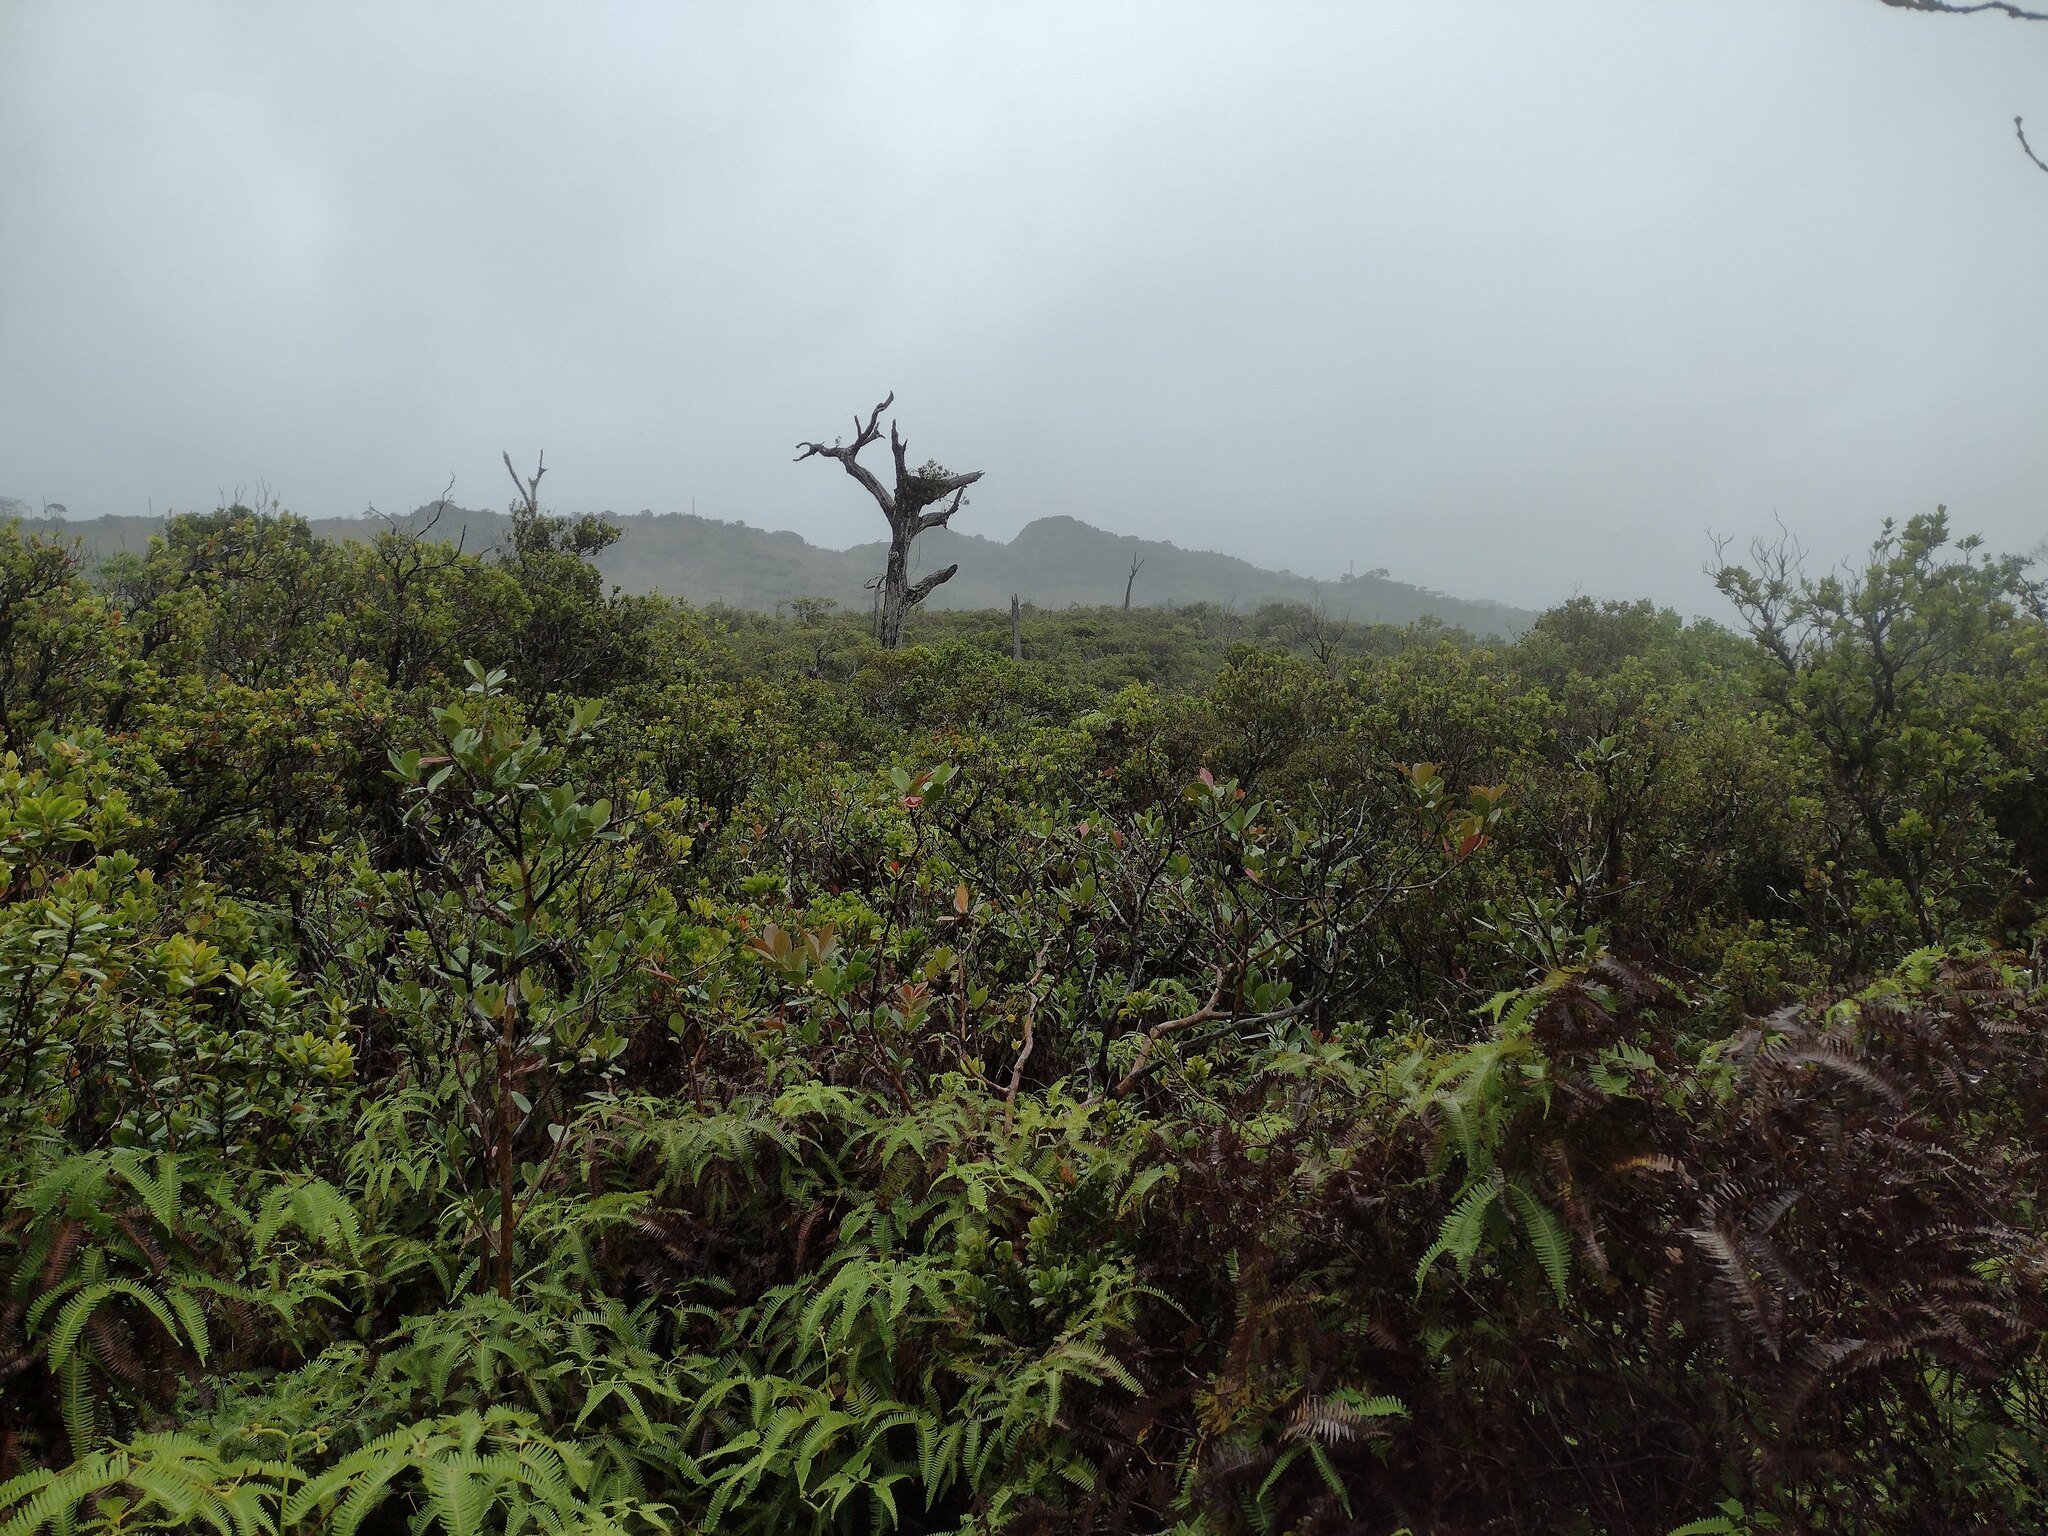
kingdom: Plantae
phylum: Tracheophyta
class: Magnoliopsida
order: Myrtales
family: Myrtaceae
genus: Metrosideros
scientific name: Metrosideros polymorpha
